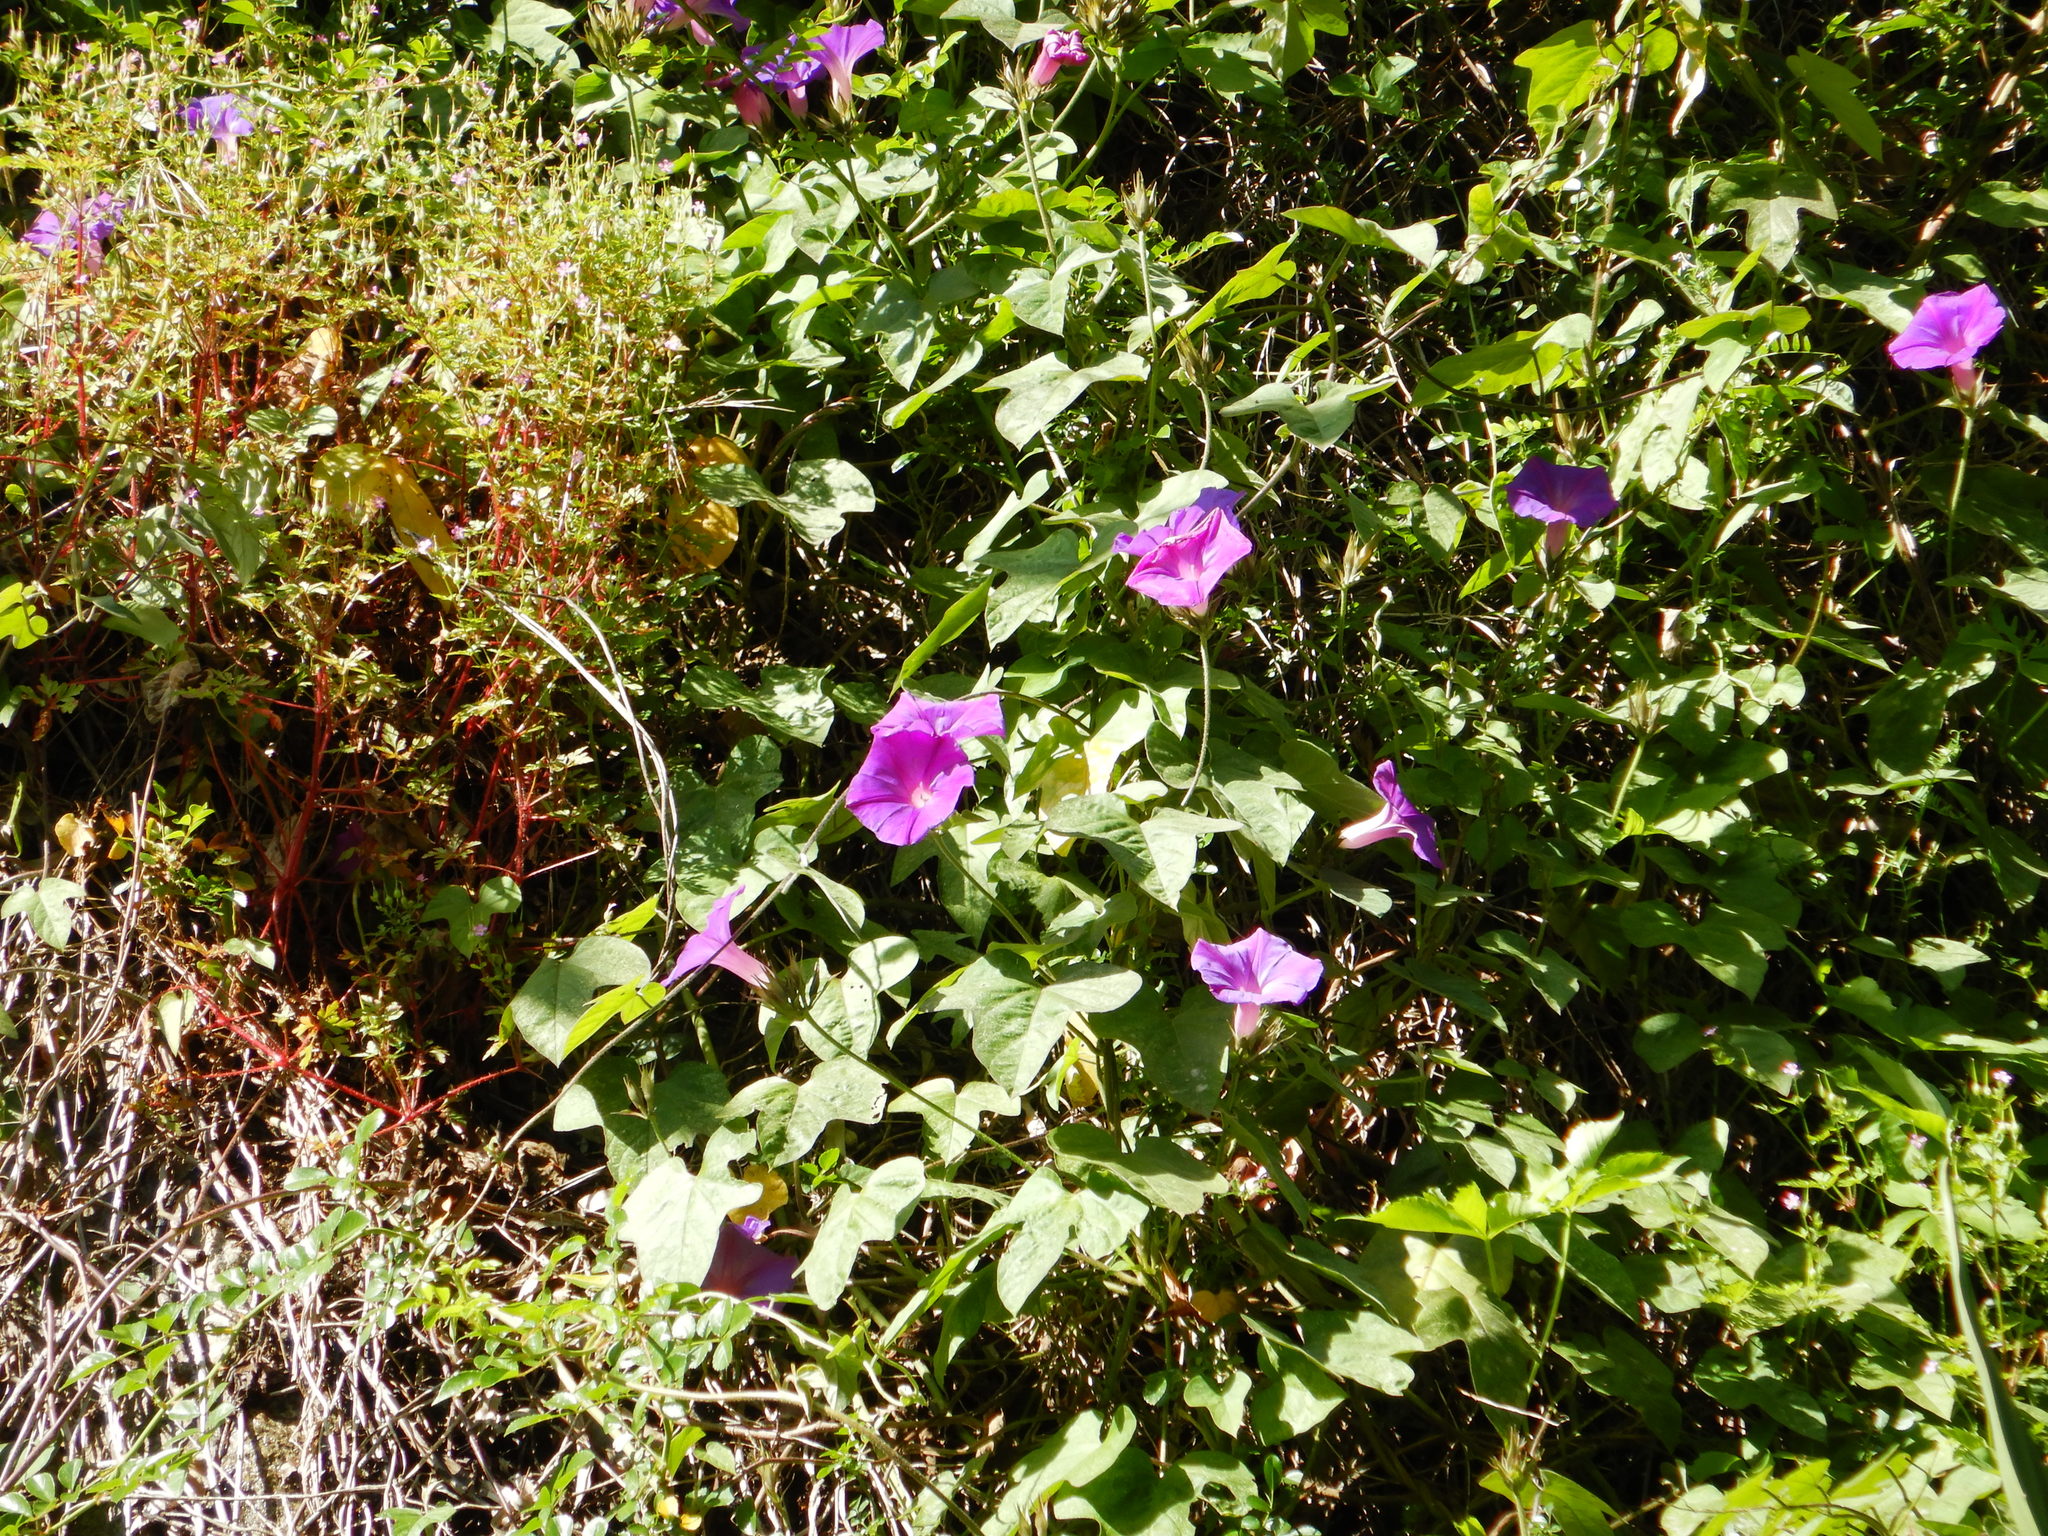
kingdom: Plantae
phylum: Tracheophyta
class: Magnoliopsida
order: Solanales
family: Convolvulaceae
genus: Ipomoea
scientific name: Ipomoea indica
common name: Blue dawnflower
